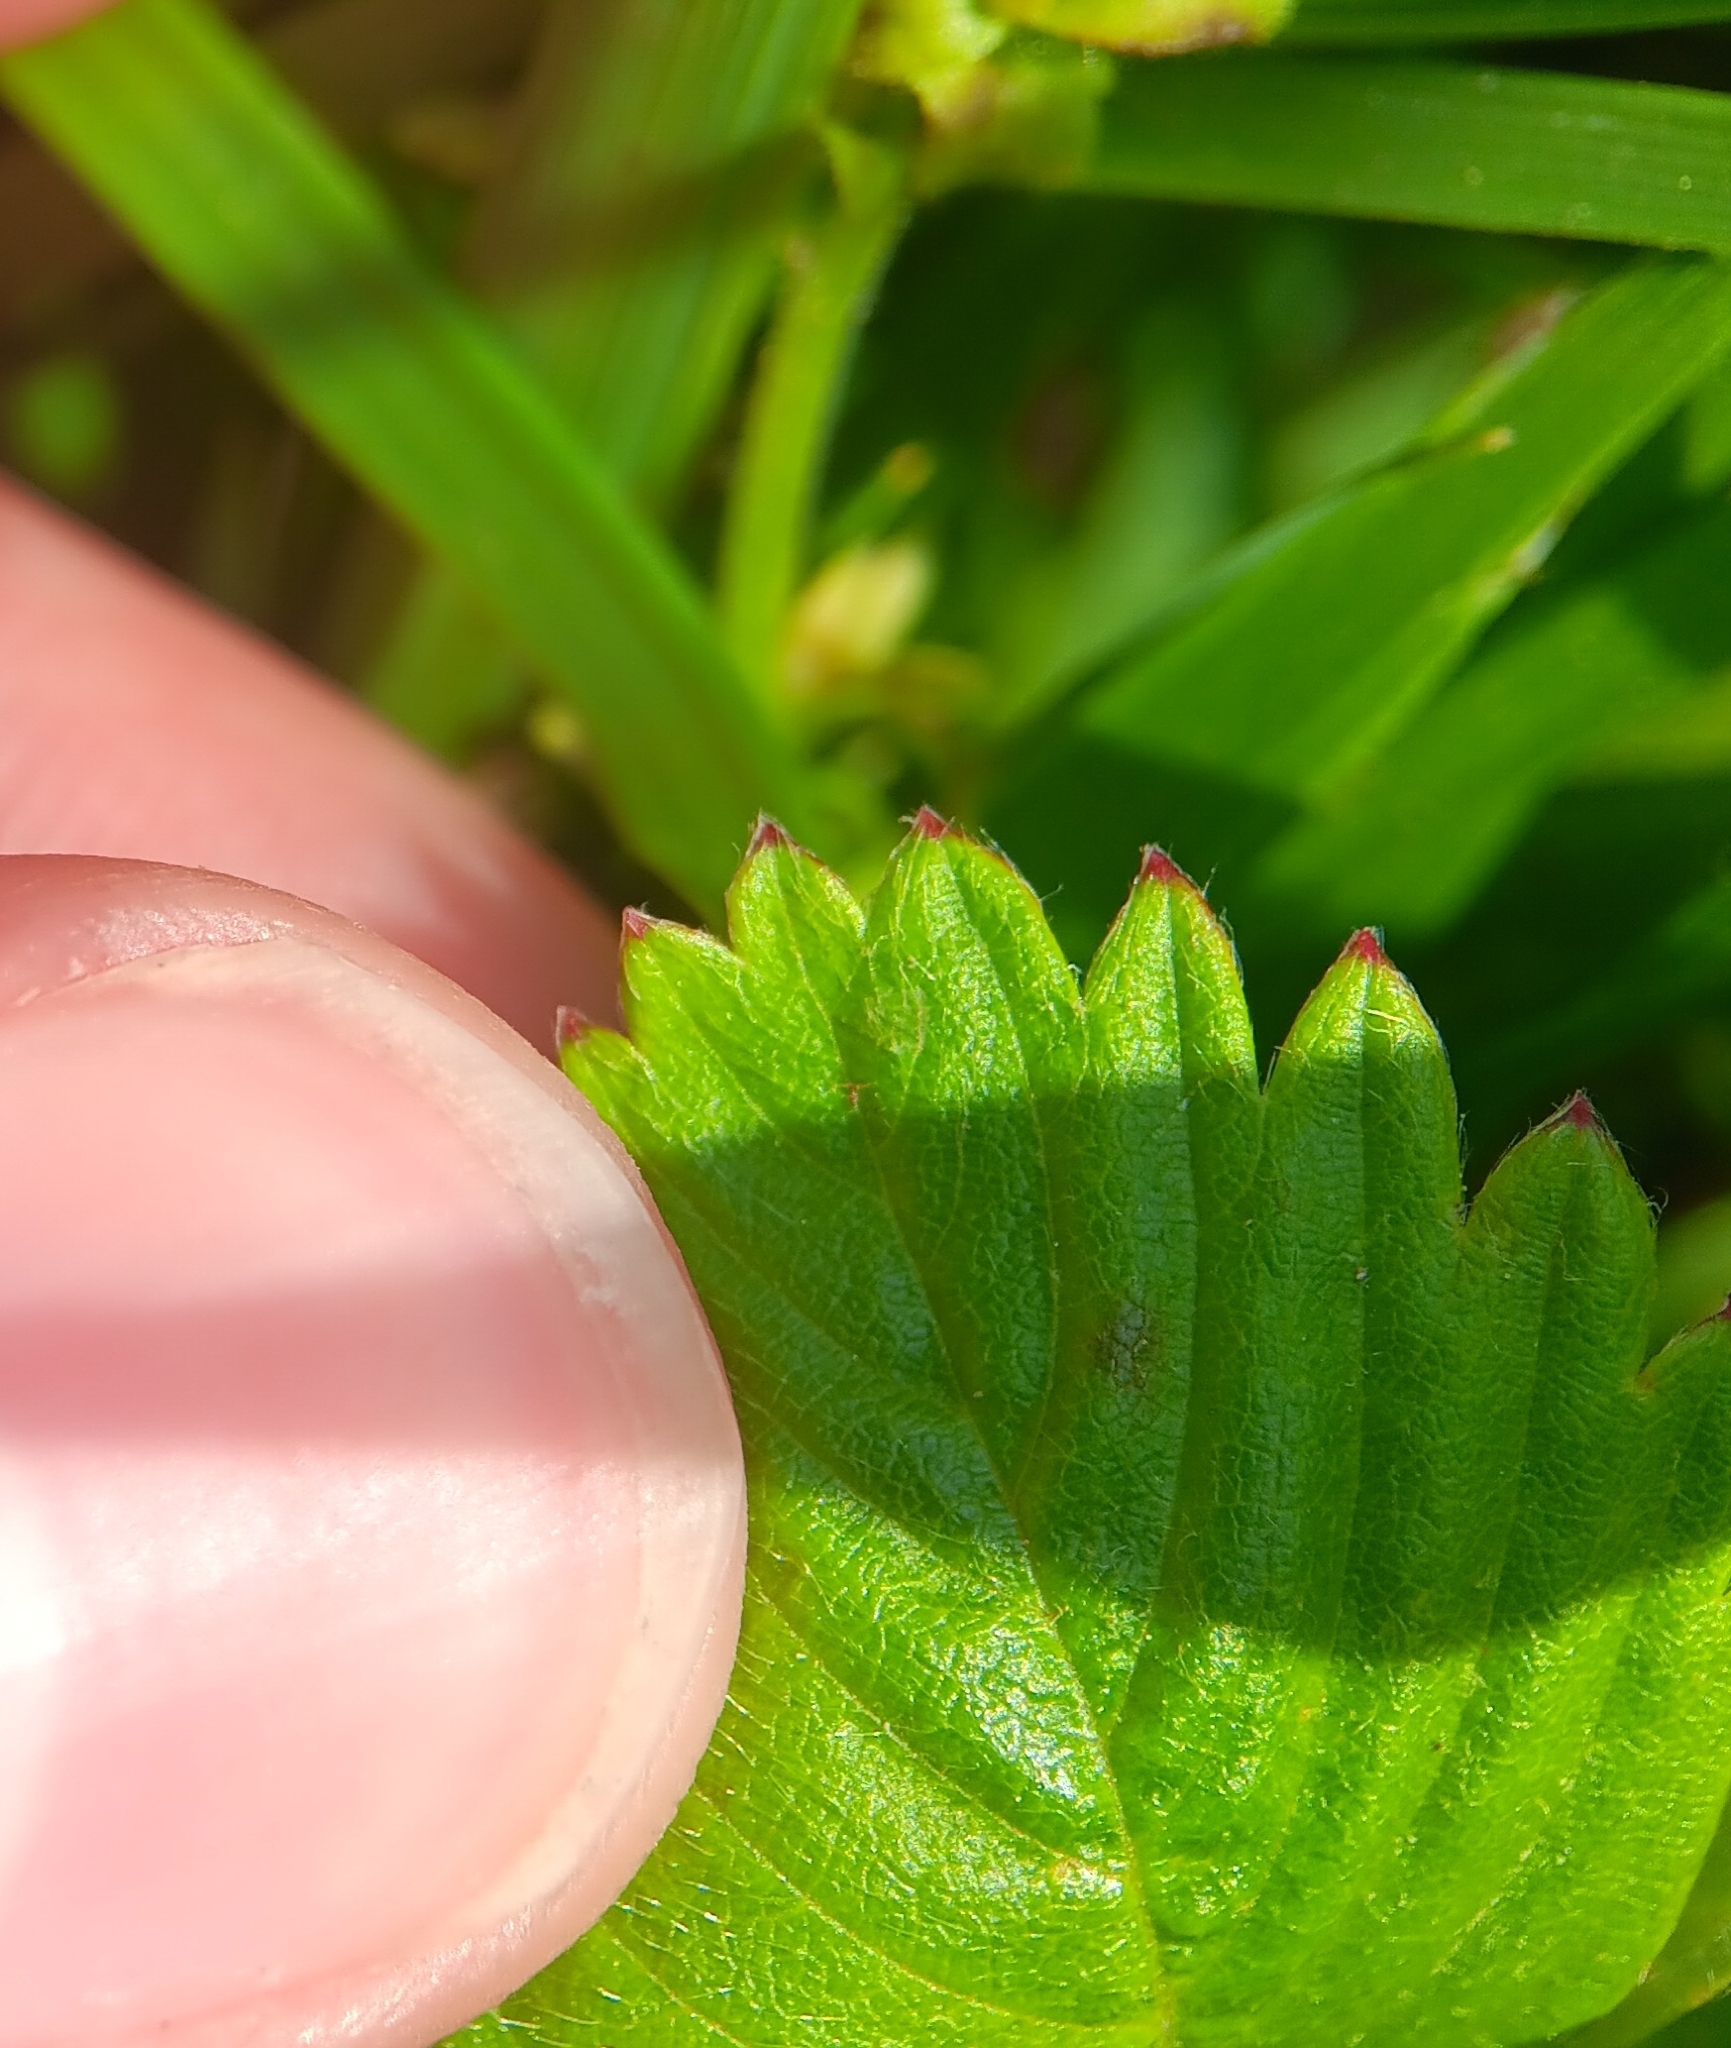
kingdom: Plantae
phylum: Tracheophyta
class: Magnoliopsida
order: Rosales
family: Rosaceae
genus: Fragaria
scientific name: Fragaria vesca
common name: Wild strawberry
